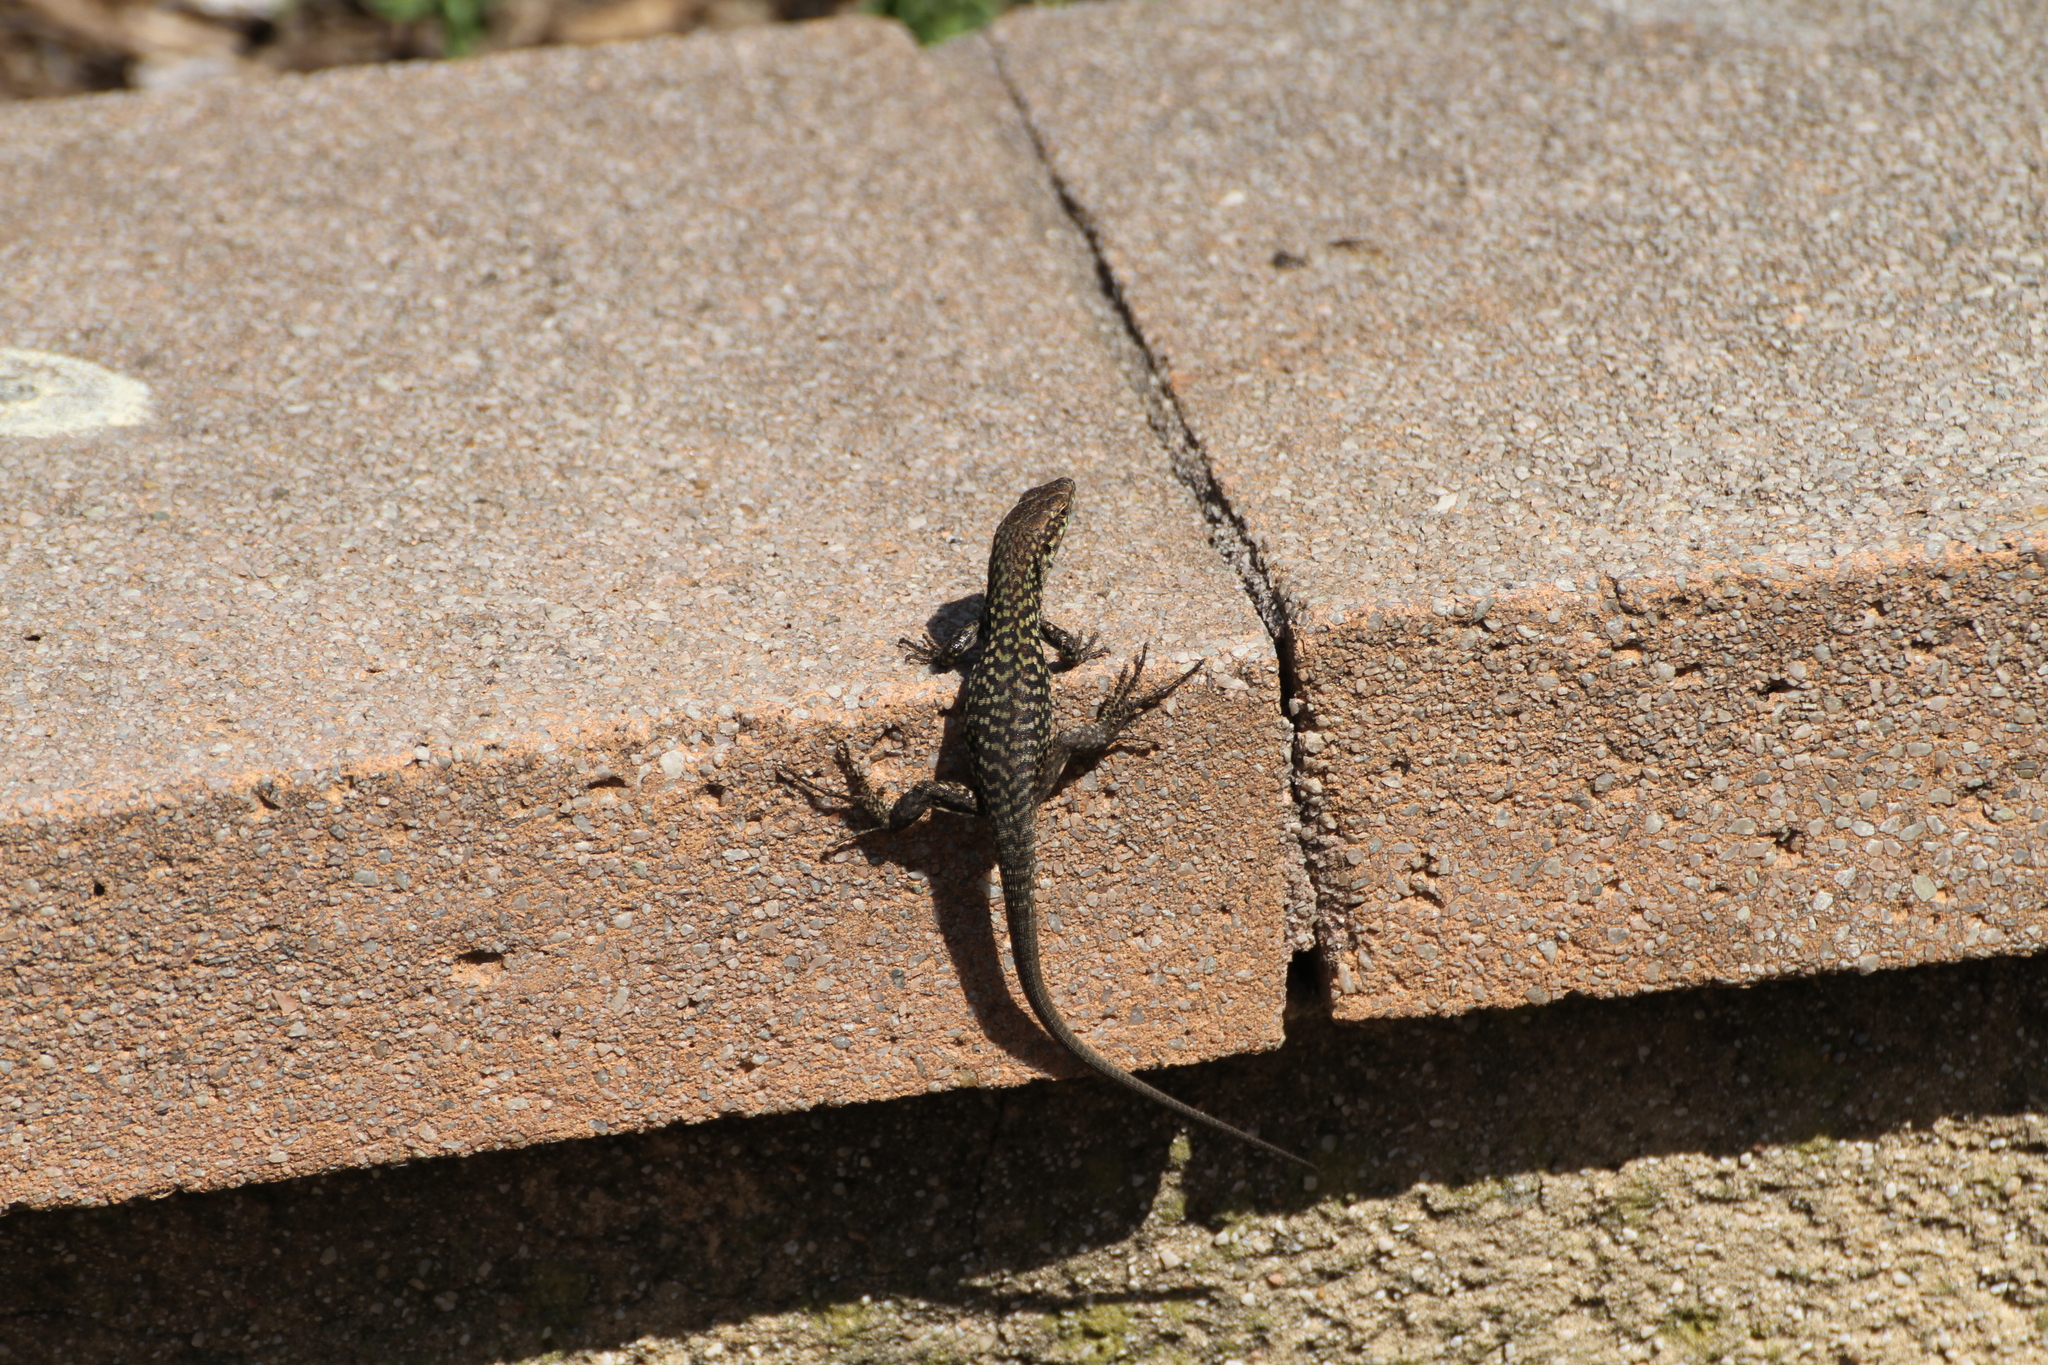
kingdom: Animalia
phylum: Chordata
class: Squamata
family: Lacertidae
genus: Podarcis
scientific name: Podarcis siculus
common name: Italian wall lizard
